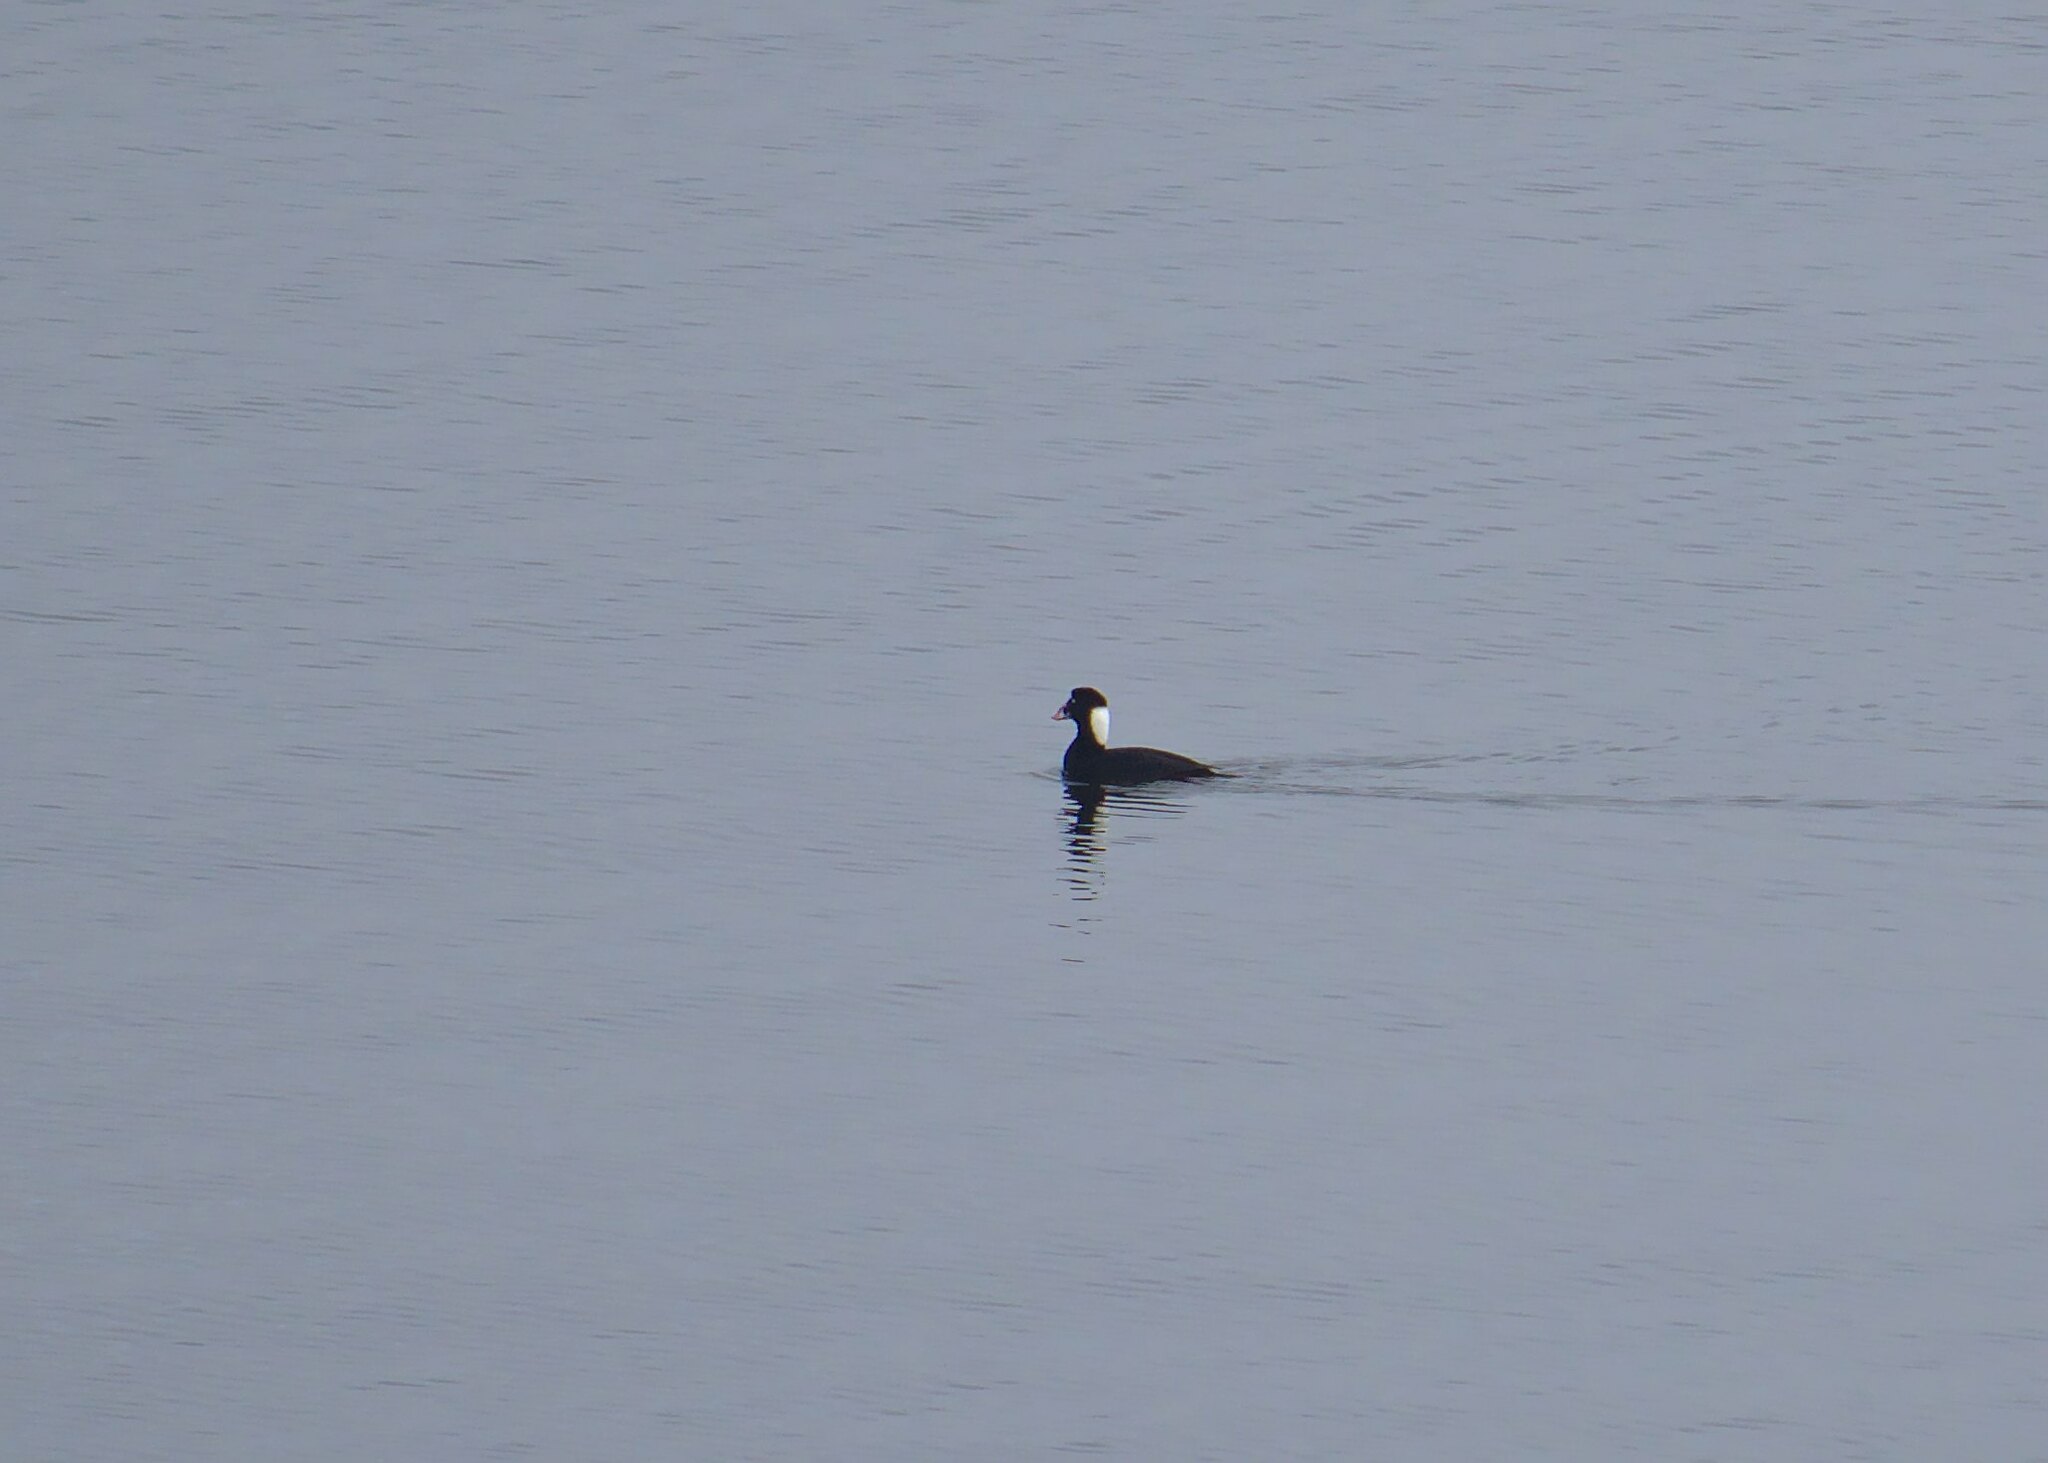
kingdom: Animalia
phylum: Chordata
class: Aves
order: Anseriformes
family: Anatidae
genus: Melanitta
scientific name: Melanitta perspicillata
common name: Surf scoter
